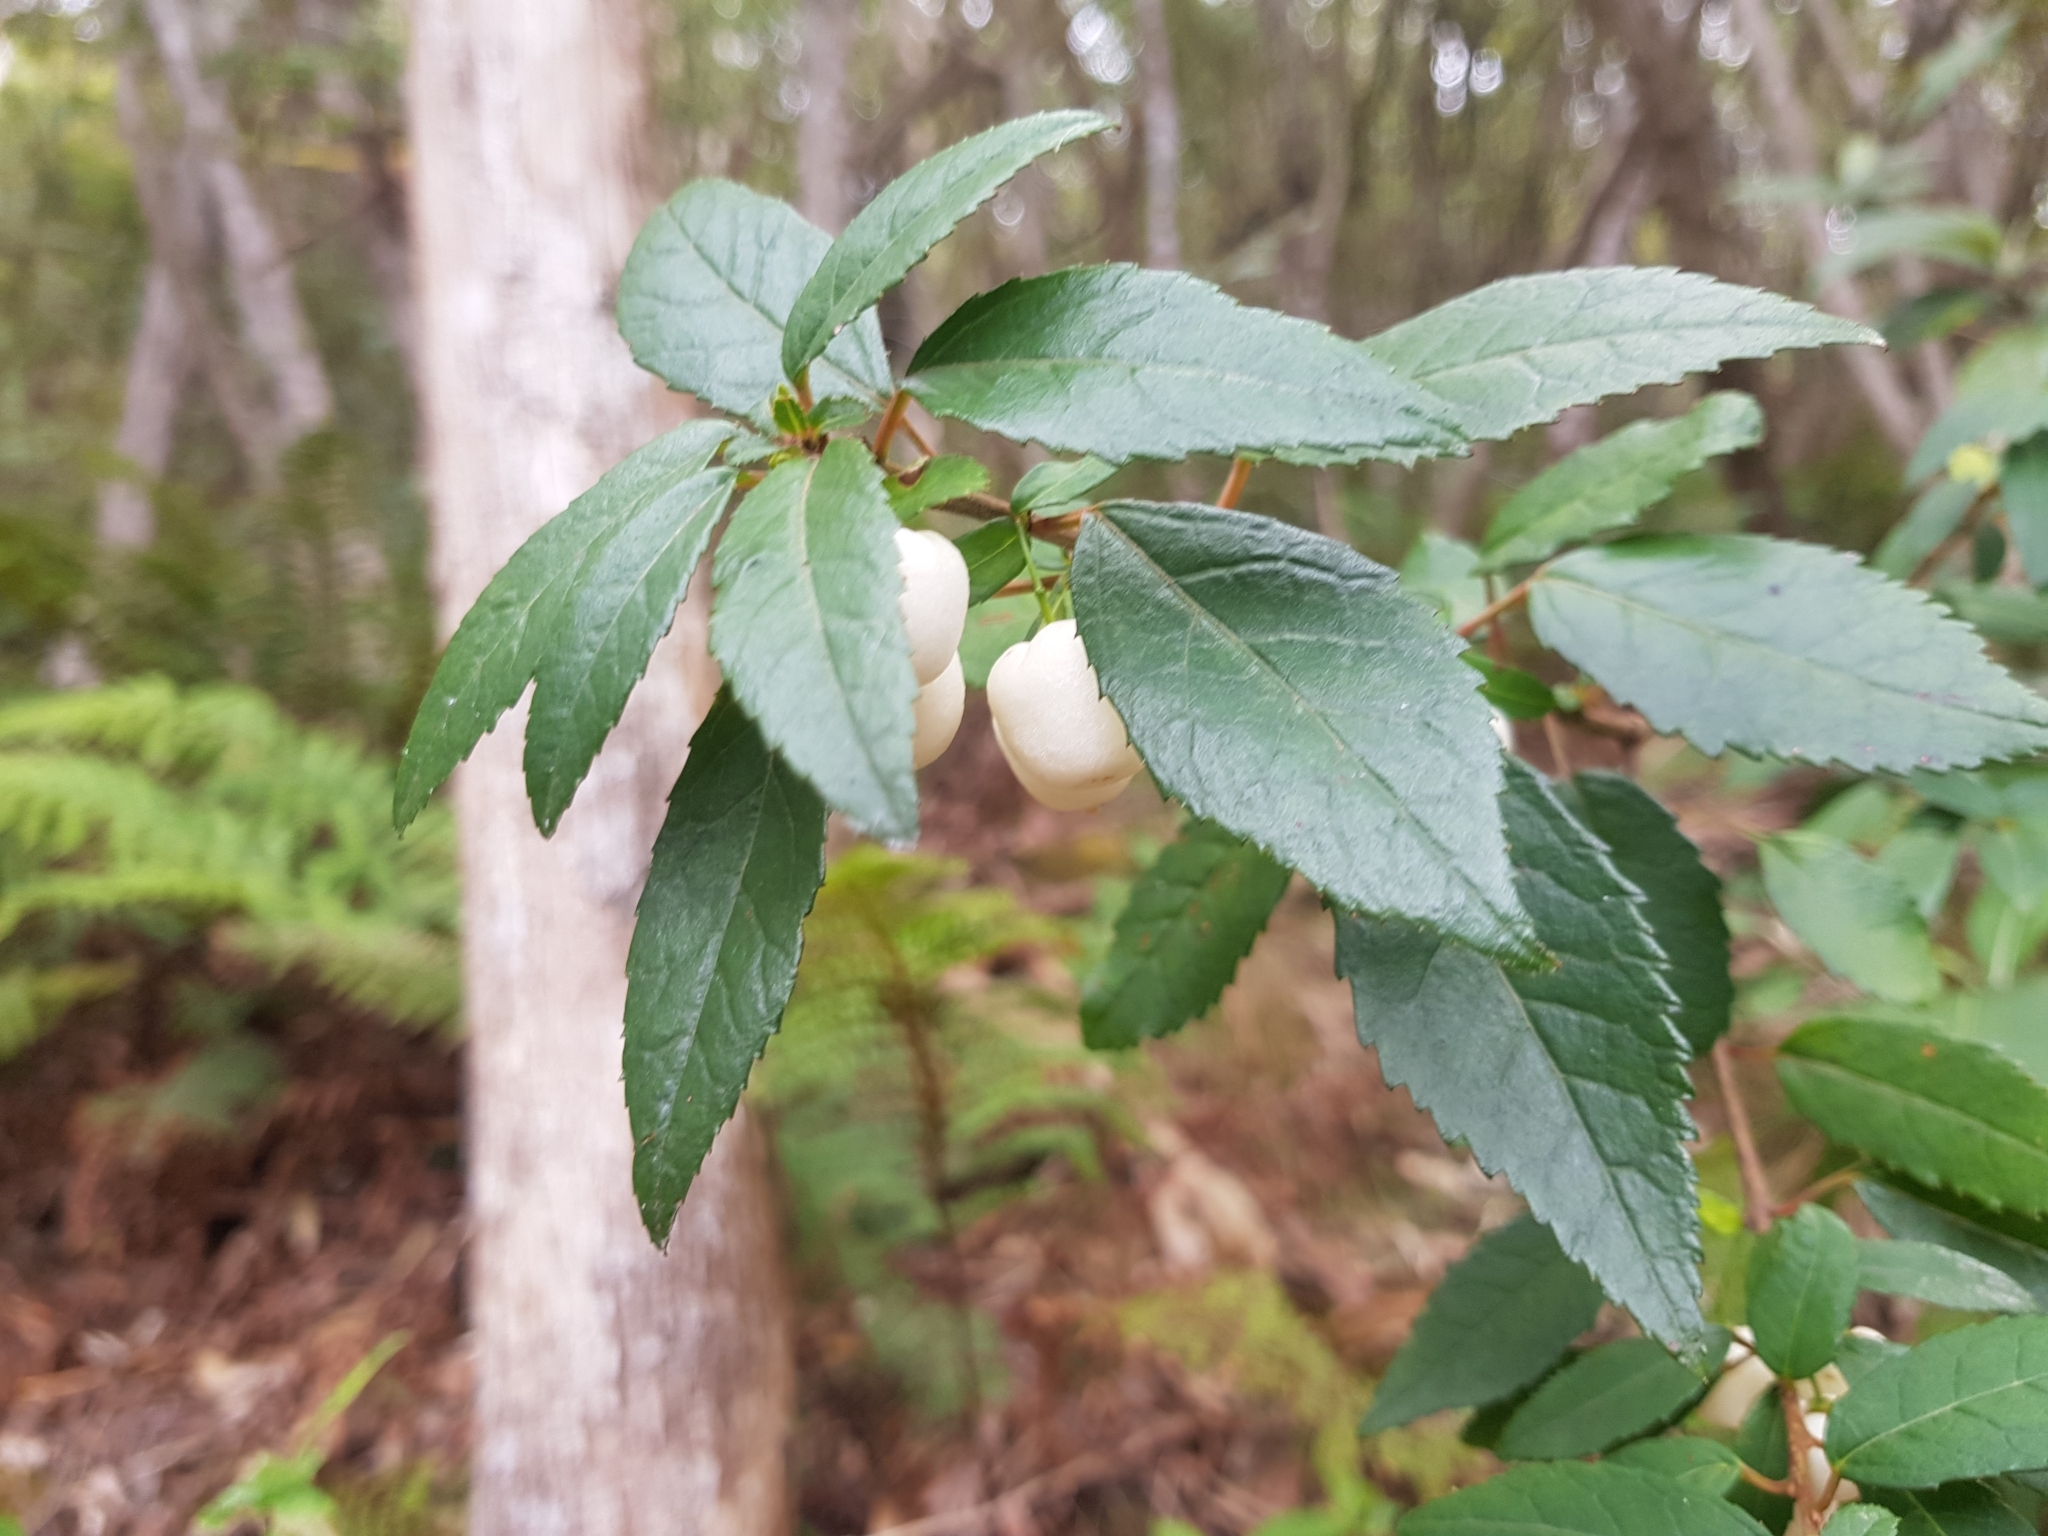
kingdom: Plantae
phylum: Tracheophyta
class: Magnoliopsida
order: Oxalidales
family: Elaeocarpaceae
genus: Aristotelia
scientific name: Aristotelia peduncularis
